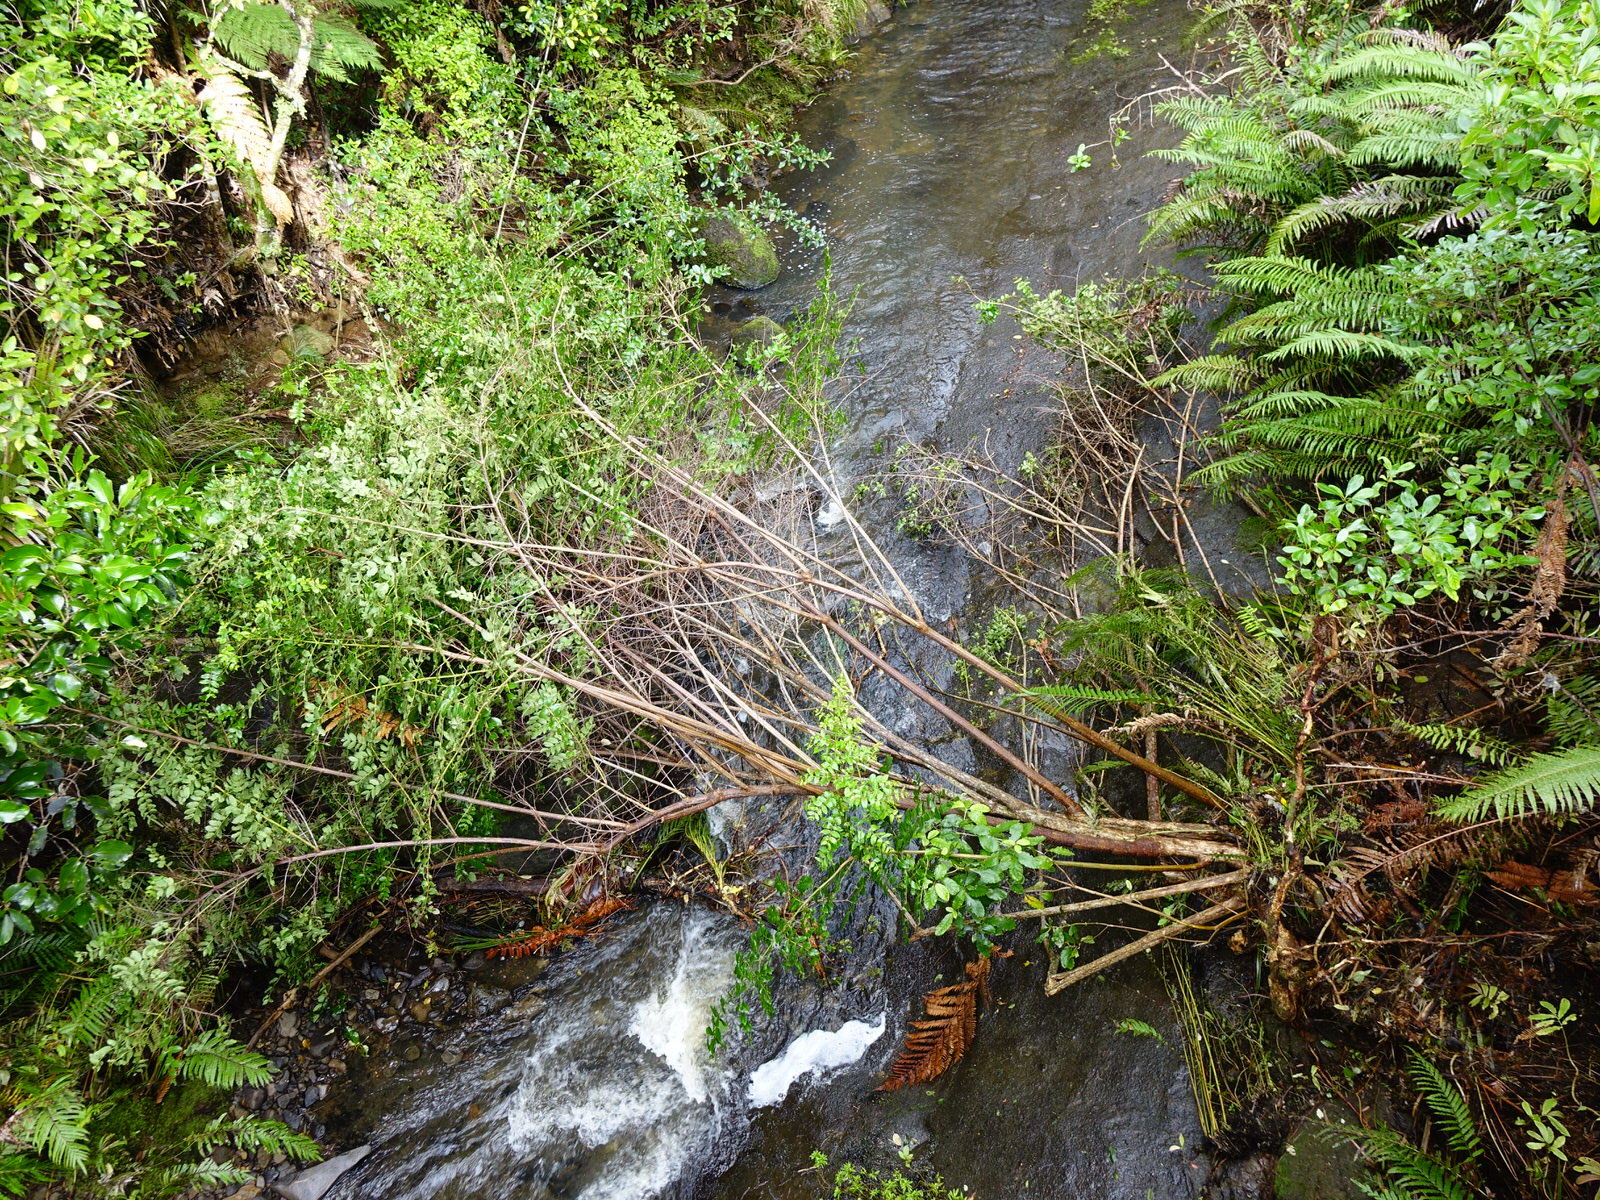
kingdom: Plantae
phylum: Tracheophyta
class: Magnoliopsida
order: Cucurbitales
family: Coriariaceae
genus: Coriaria
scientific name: Coriaria arborea
